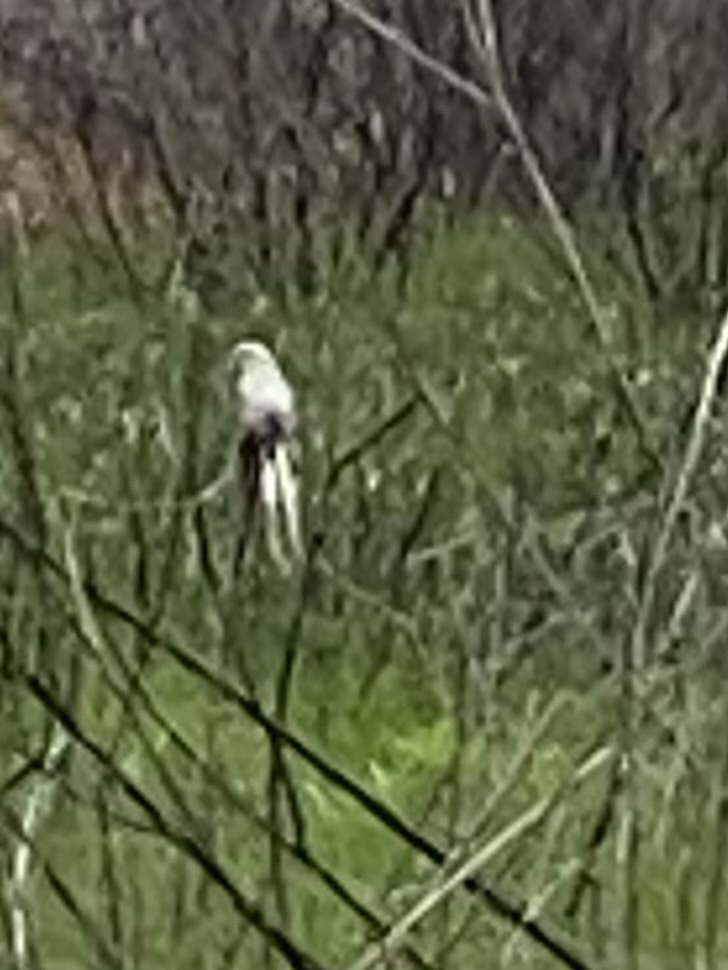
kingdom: Animalia
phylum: Chordata
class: Aves
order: Passeriformes
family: Tyrannidae
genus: Tyrannus
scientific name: Tyrannus forficatus
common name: Scissor-tailed flycatcher
